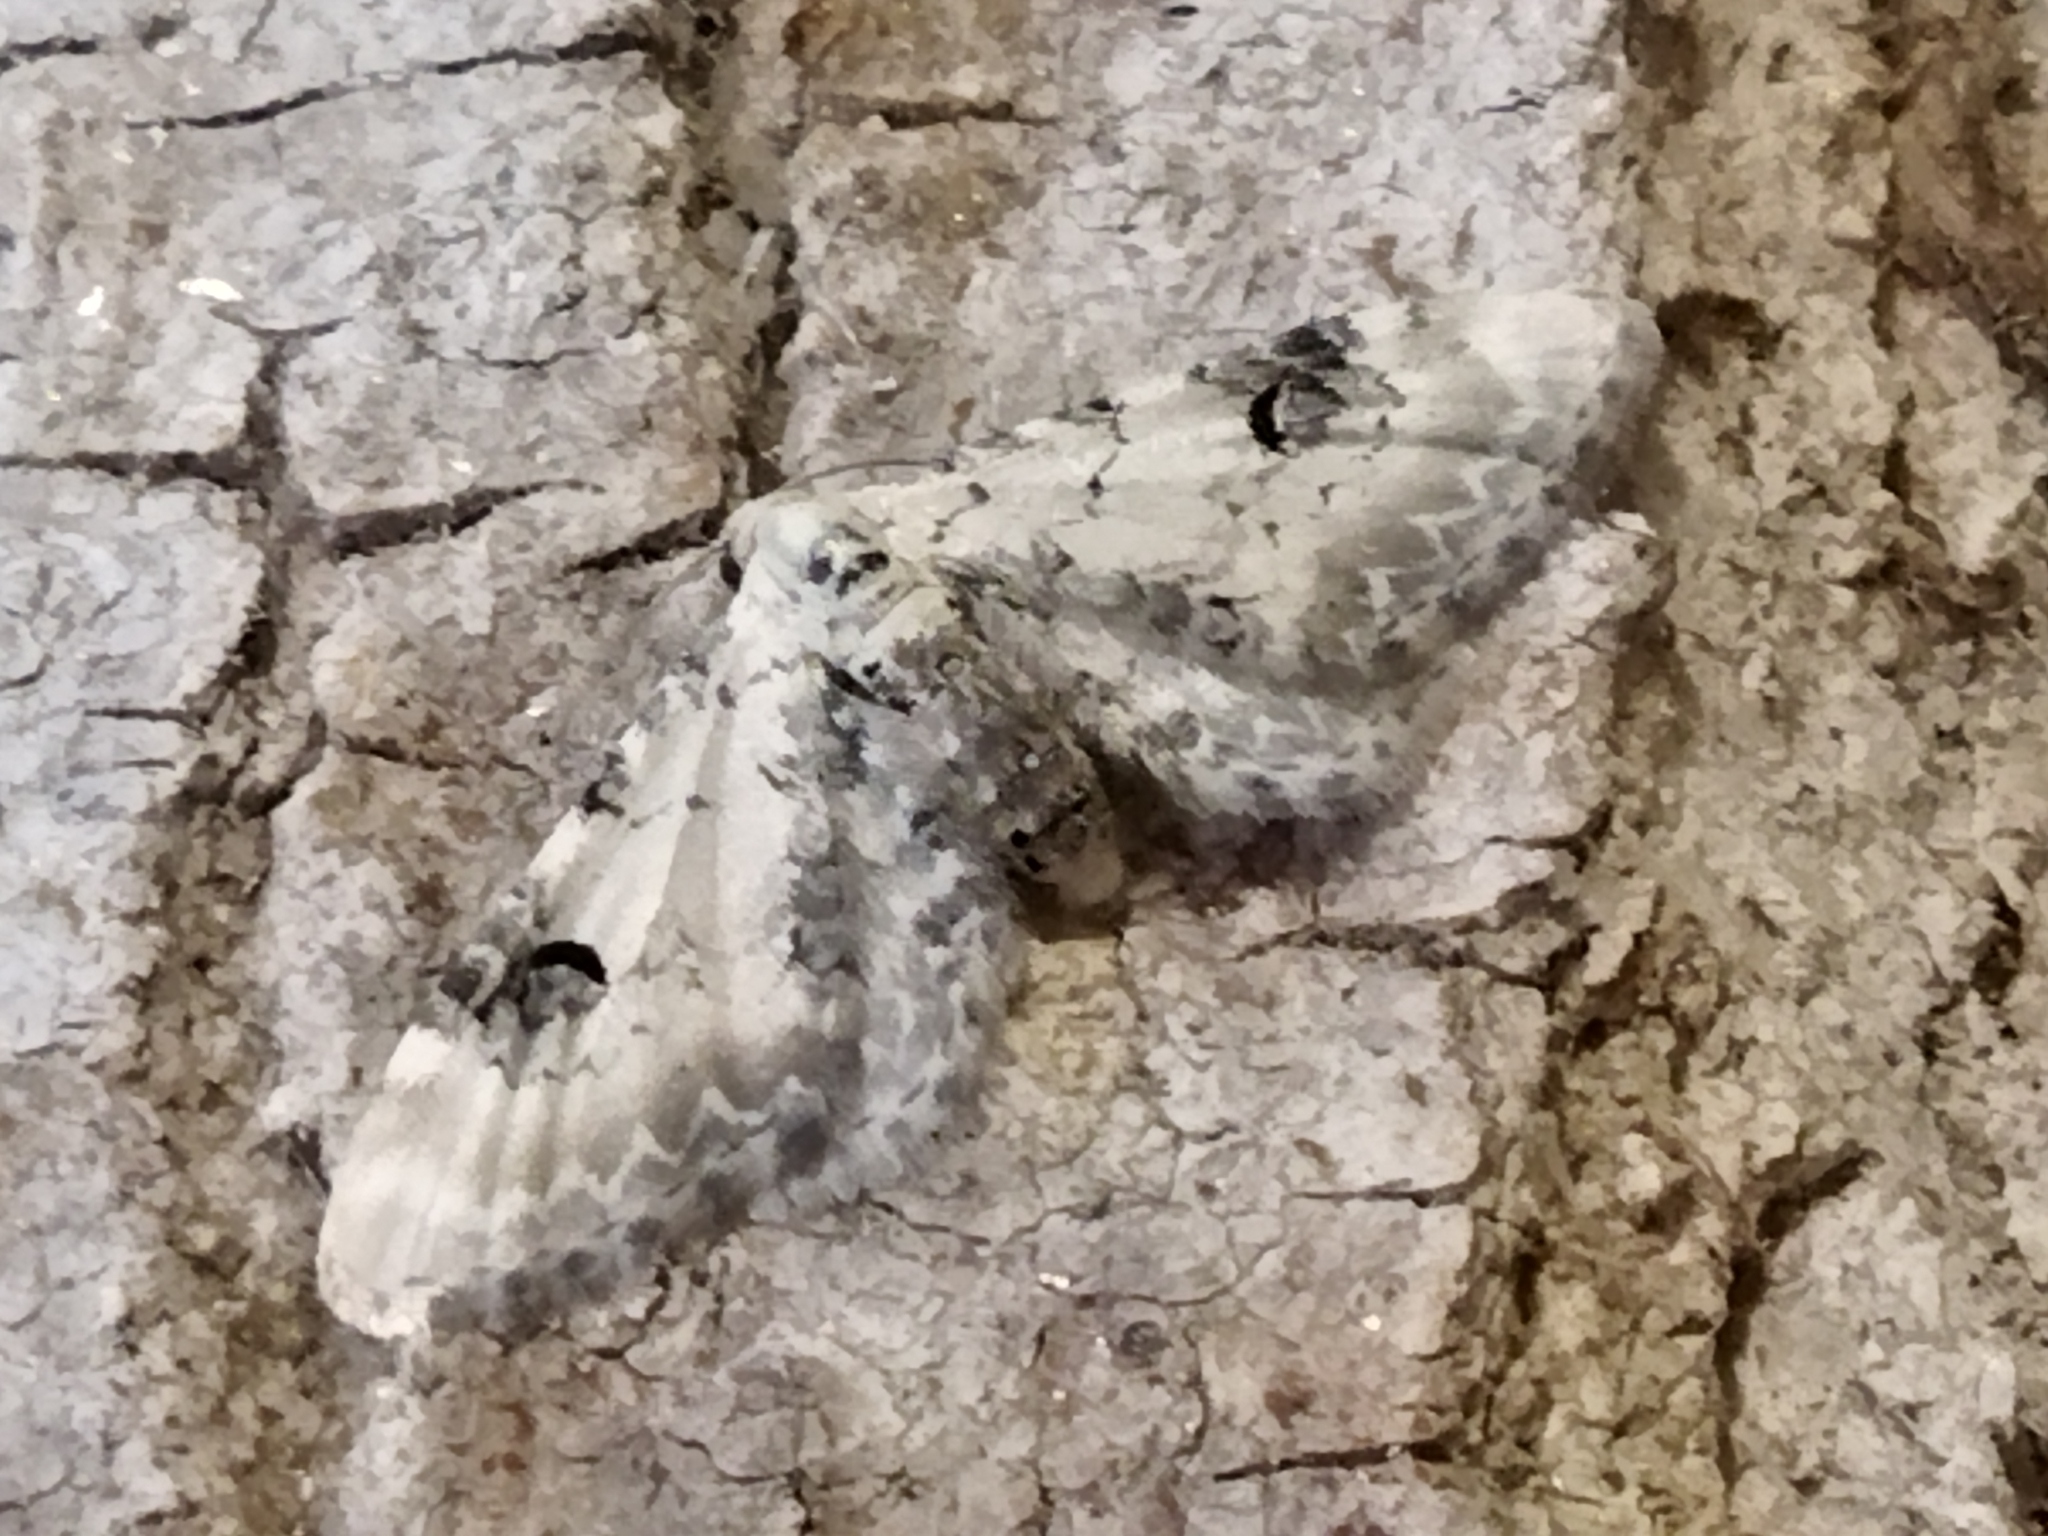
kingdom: Animalia
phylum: Arthropoda
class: Insecta
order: Lepidoptera
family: Geometridae
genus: Eupithecia
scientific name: Eupithecia centaureata
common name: Lime-speck pug
